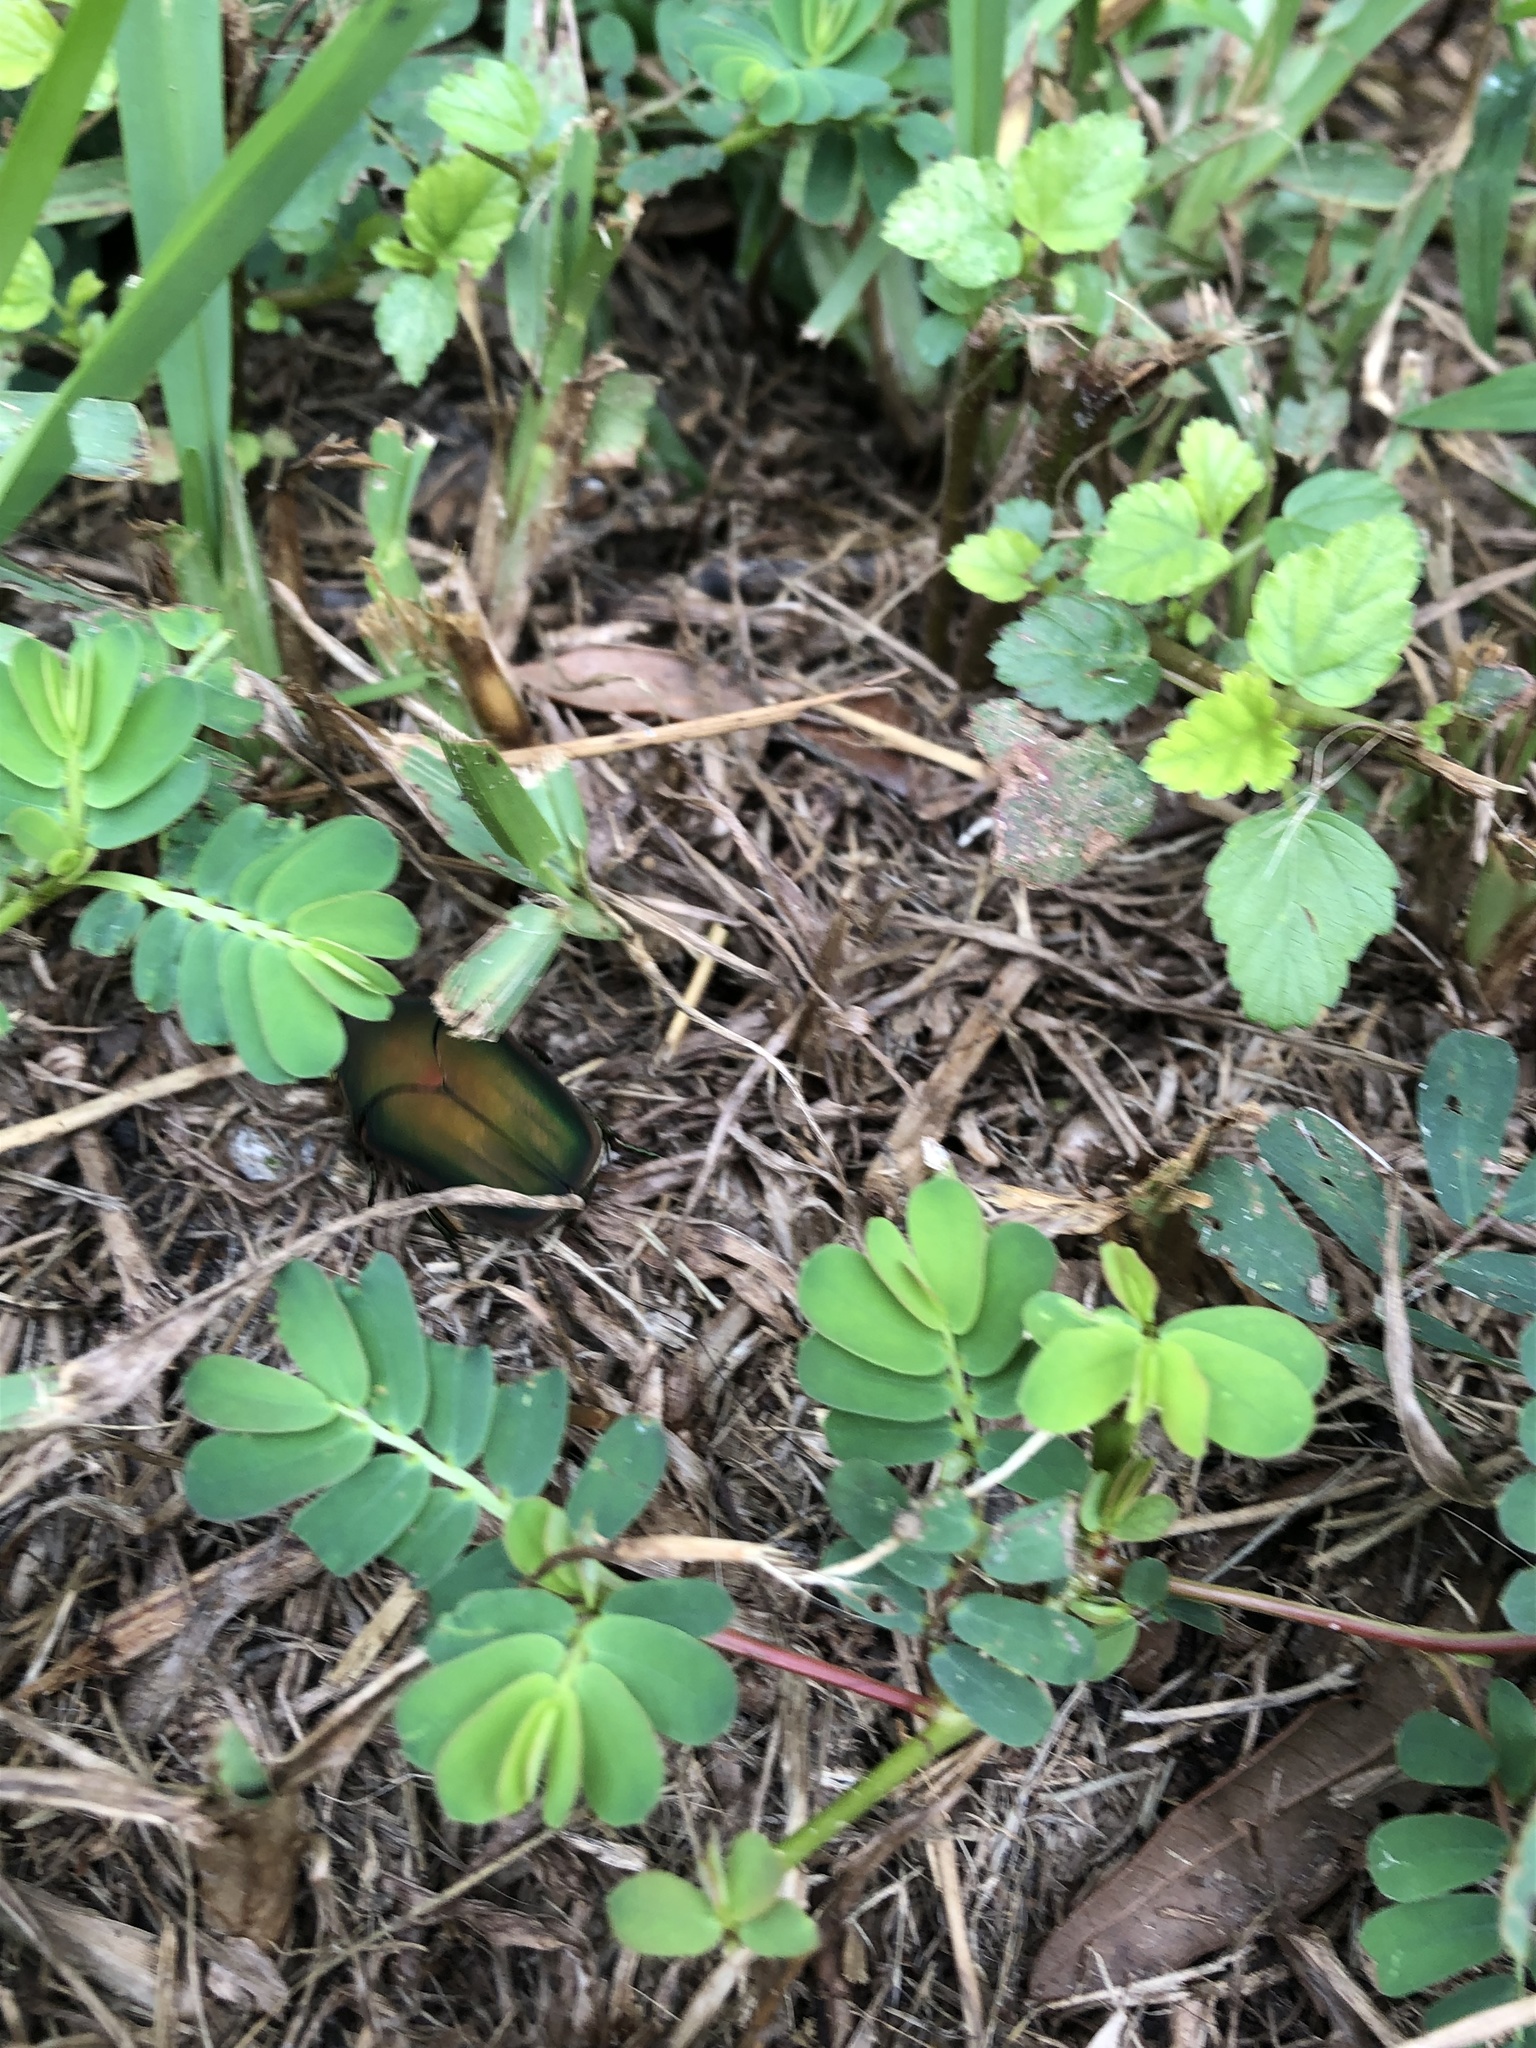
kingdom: Animalia
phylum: Arthropoda
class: Insecta
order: Coleoptera
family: Scarabaeidae
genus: Cotinis
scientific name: Cotinis nitida
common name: Common green june beetle
